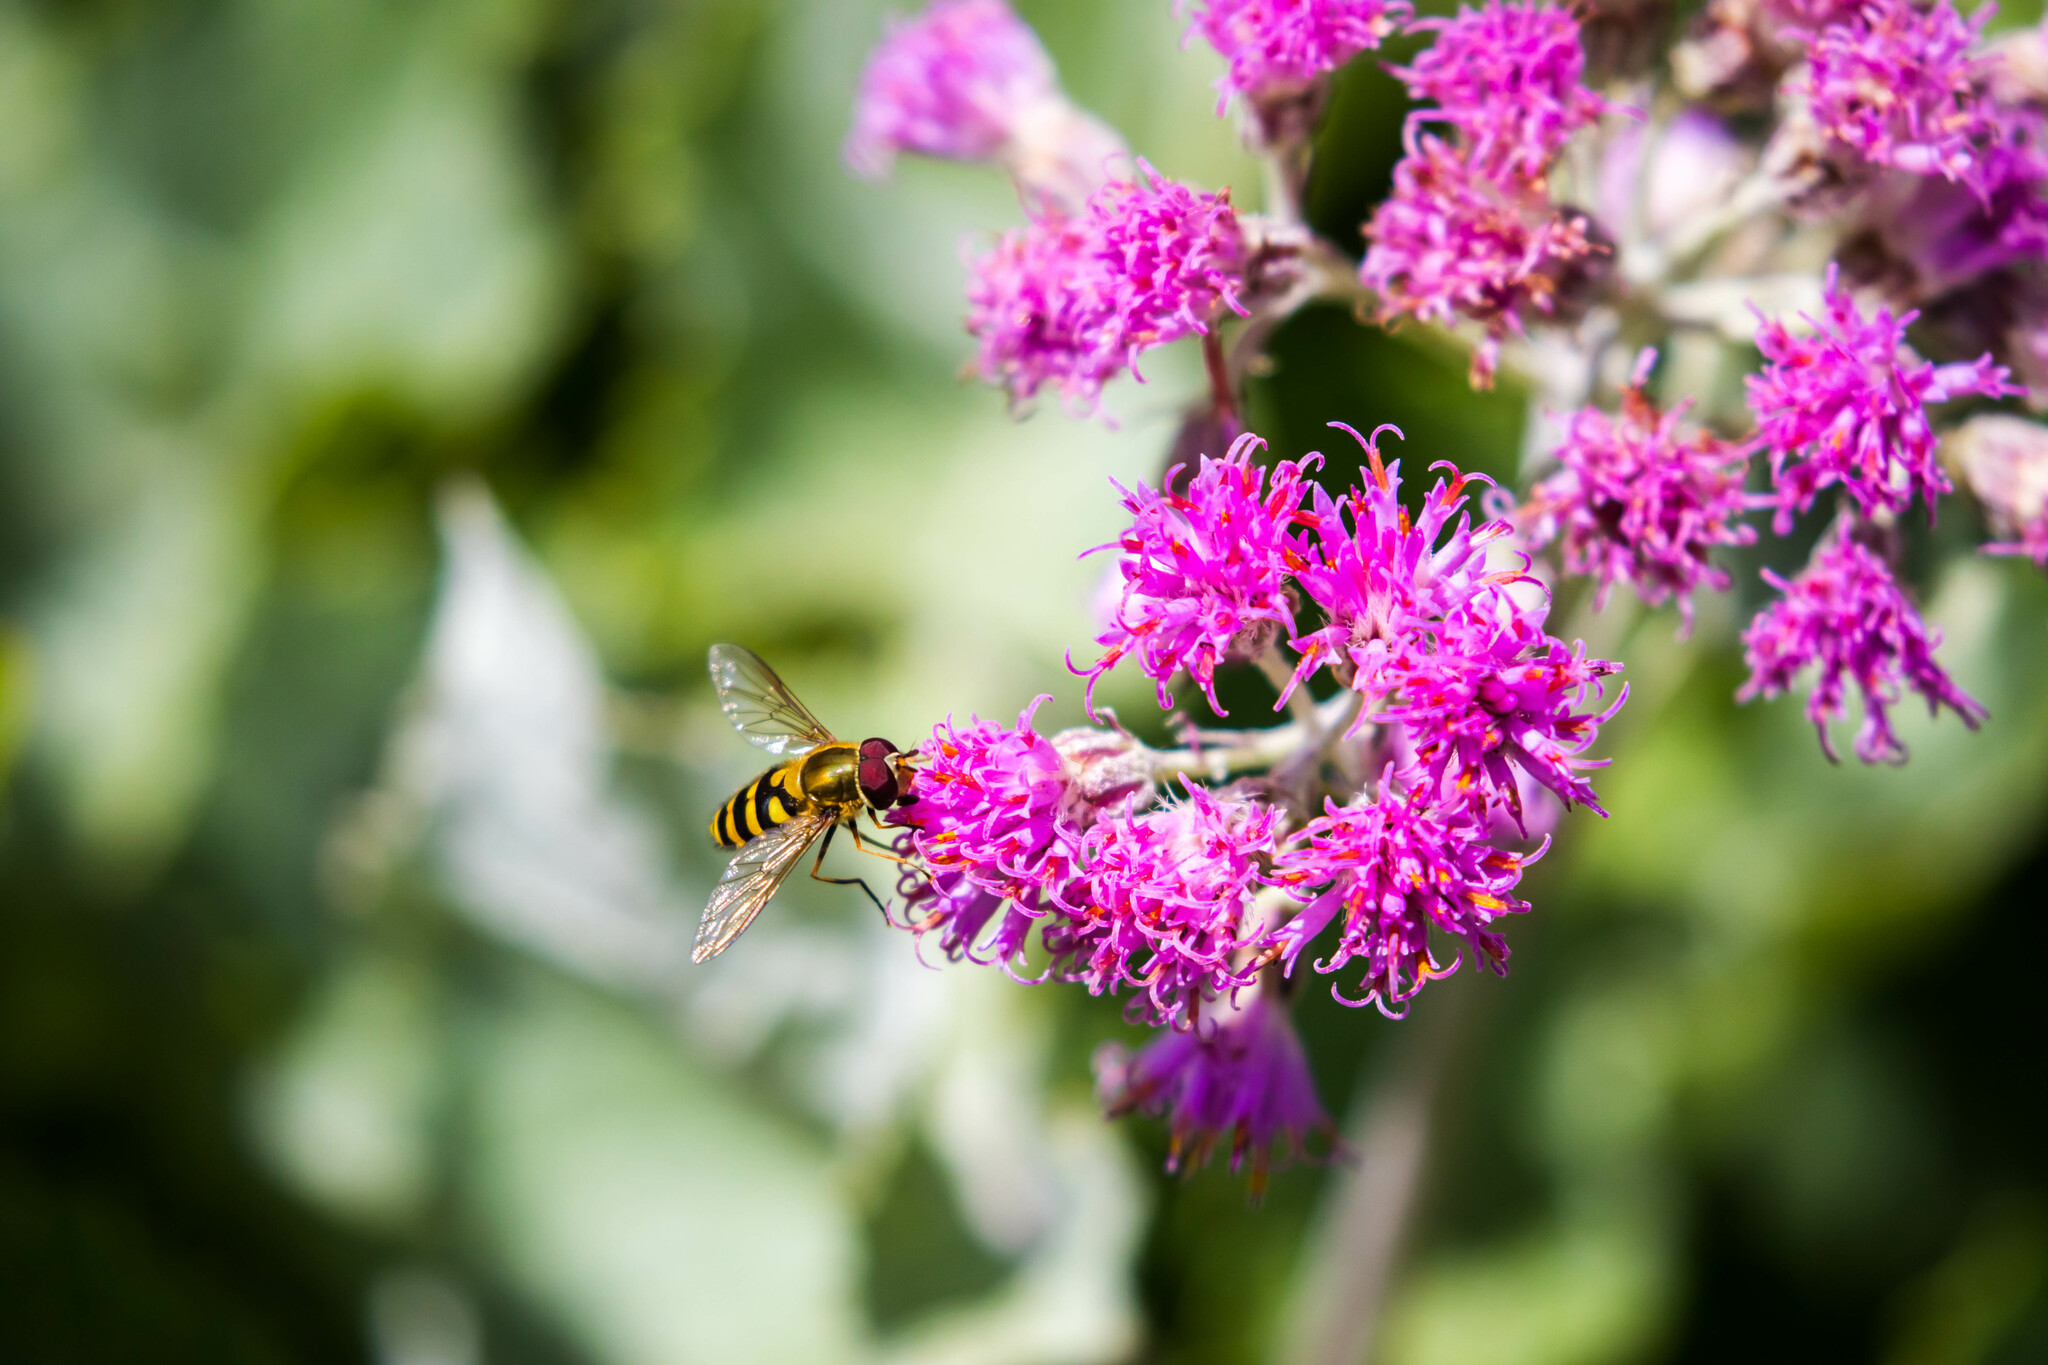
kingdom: Animalia
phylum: Arthropoda
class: Insecta
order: Diptera
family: Syrphidae
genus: Syrphus
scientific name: Syrphus
